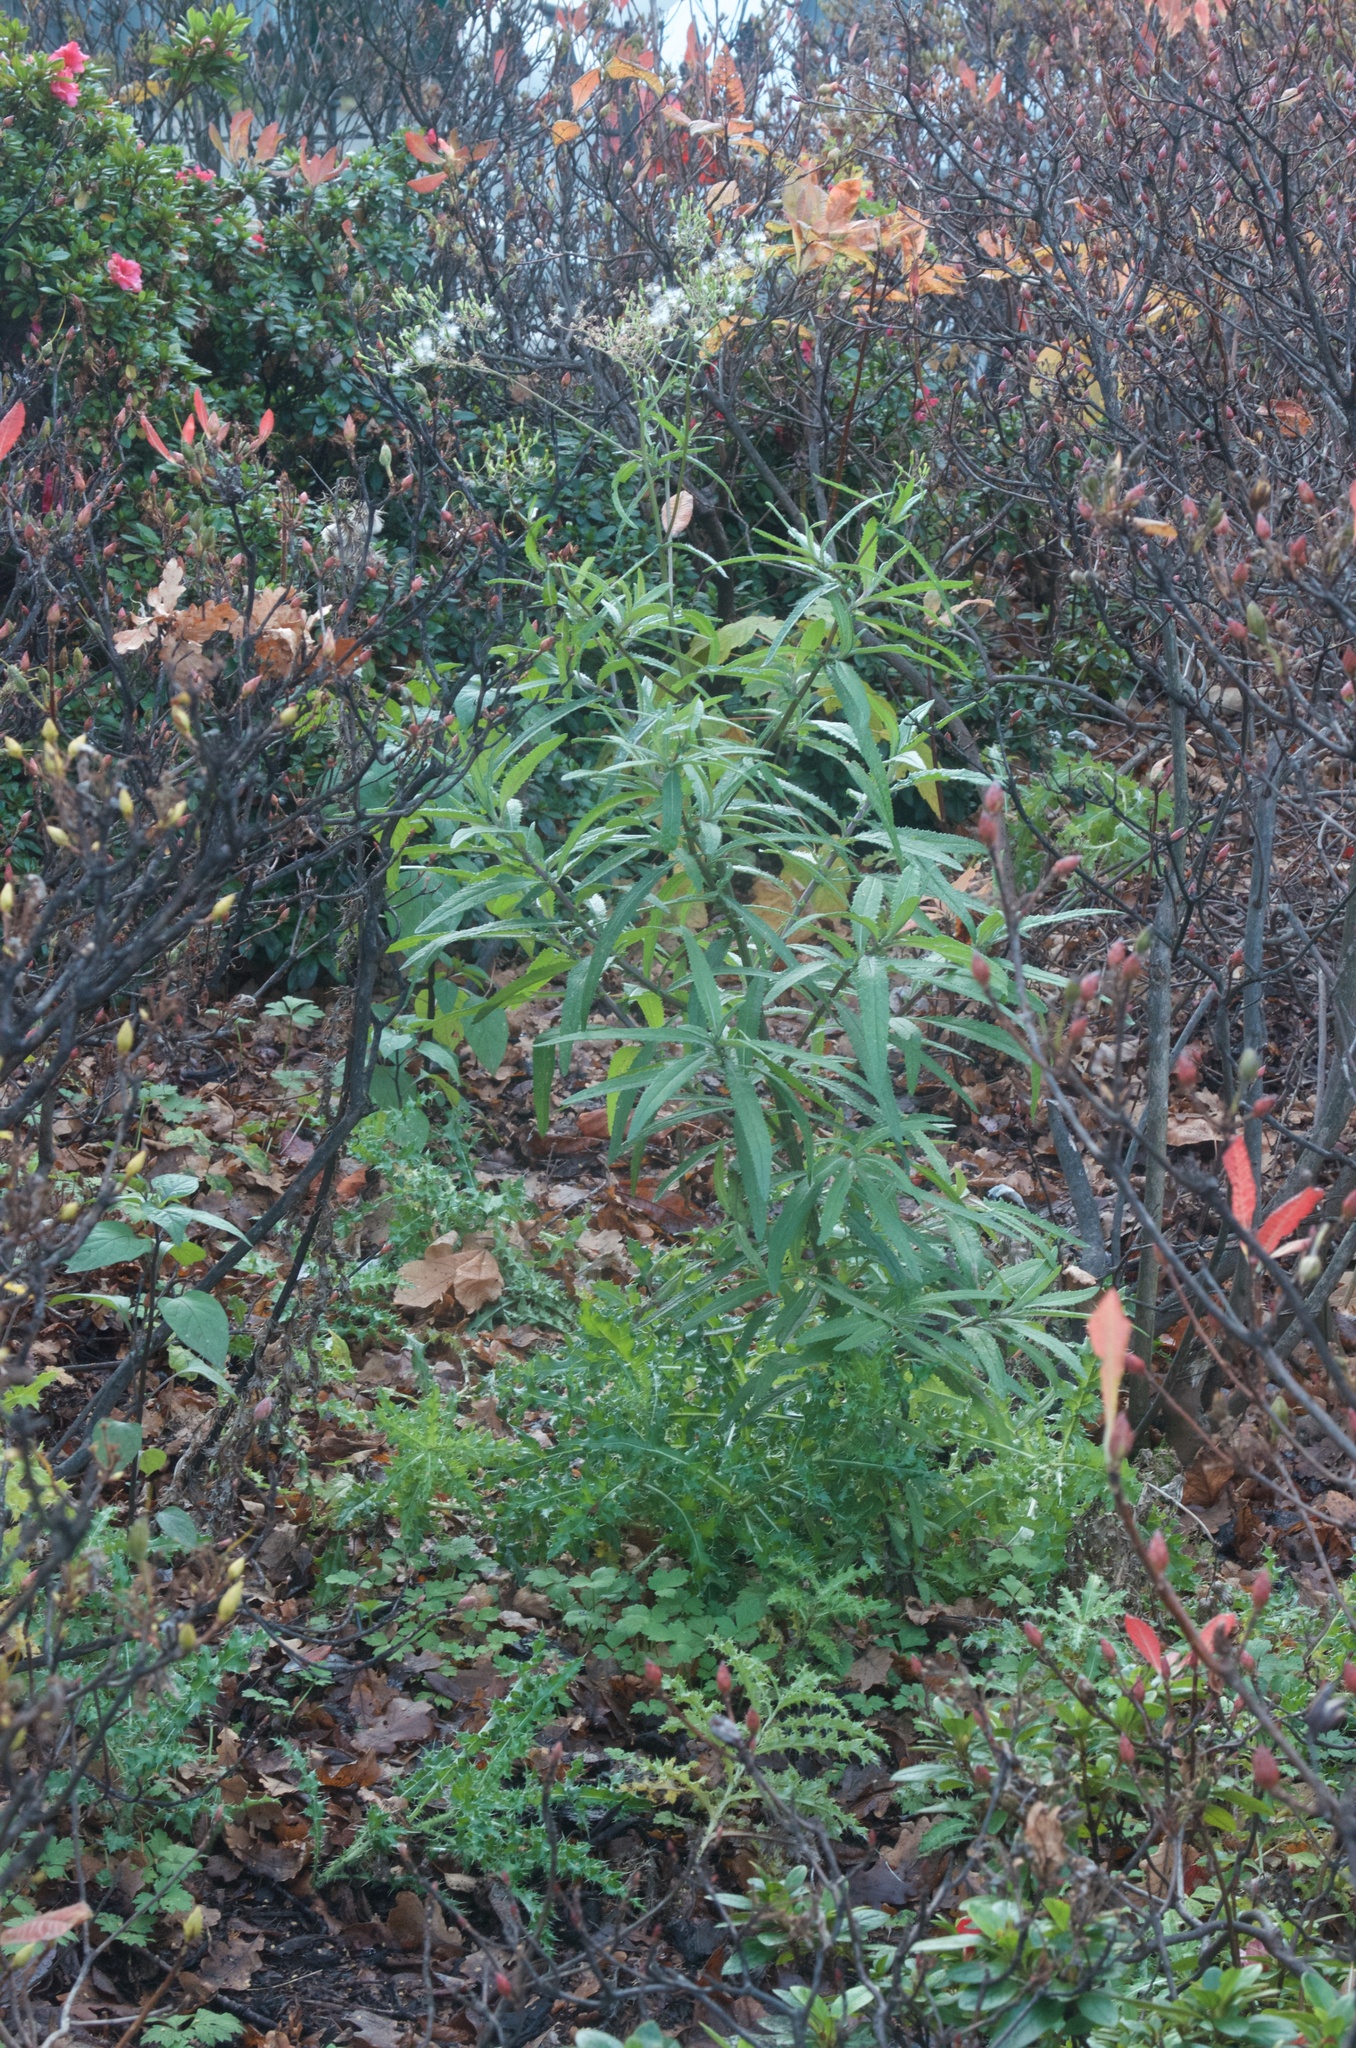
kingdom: Plantae
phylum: Tracheophyta
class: Magnoliopsida
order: Asterales
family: Asteraceae
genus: Senecio
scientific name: Senecio minimus
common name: Toothed fireweed
